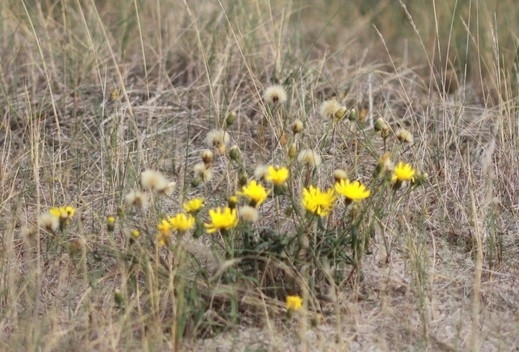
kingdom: Plantae
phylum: Tracheophyta
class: Magnoliopsida
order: Asterales
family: Asteraceae
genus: Hieracium
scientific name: Hieracium
